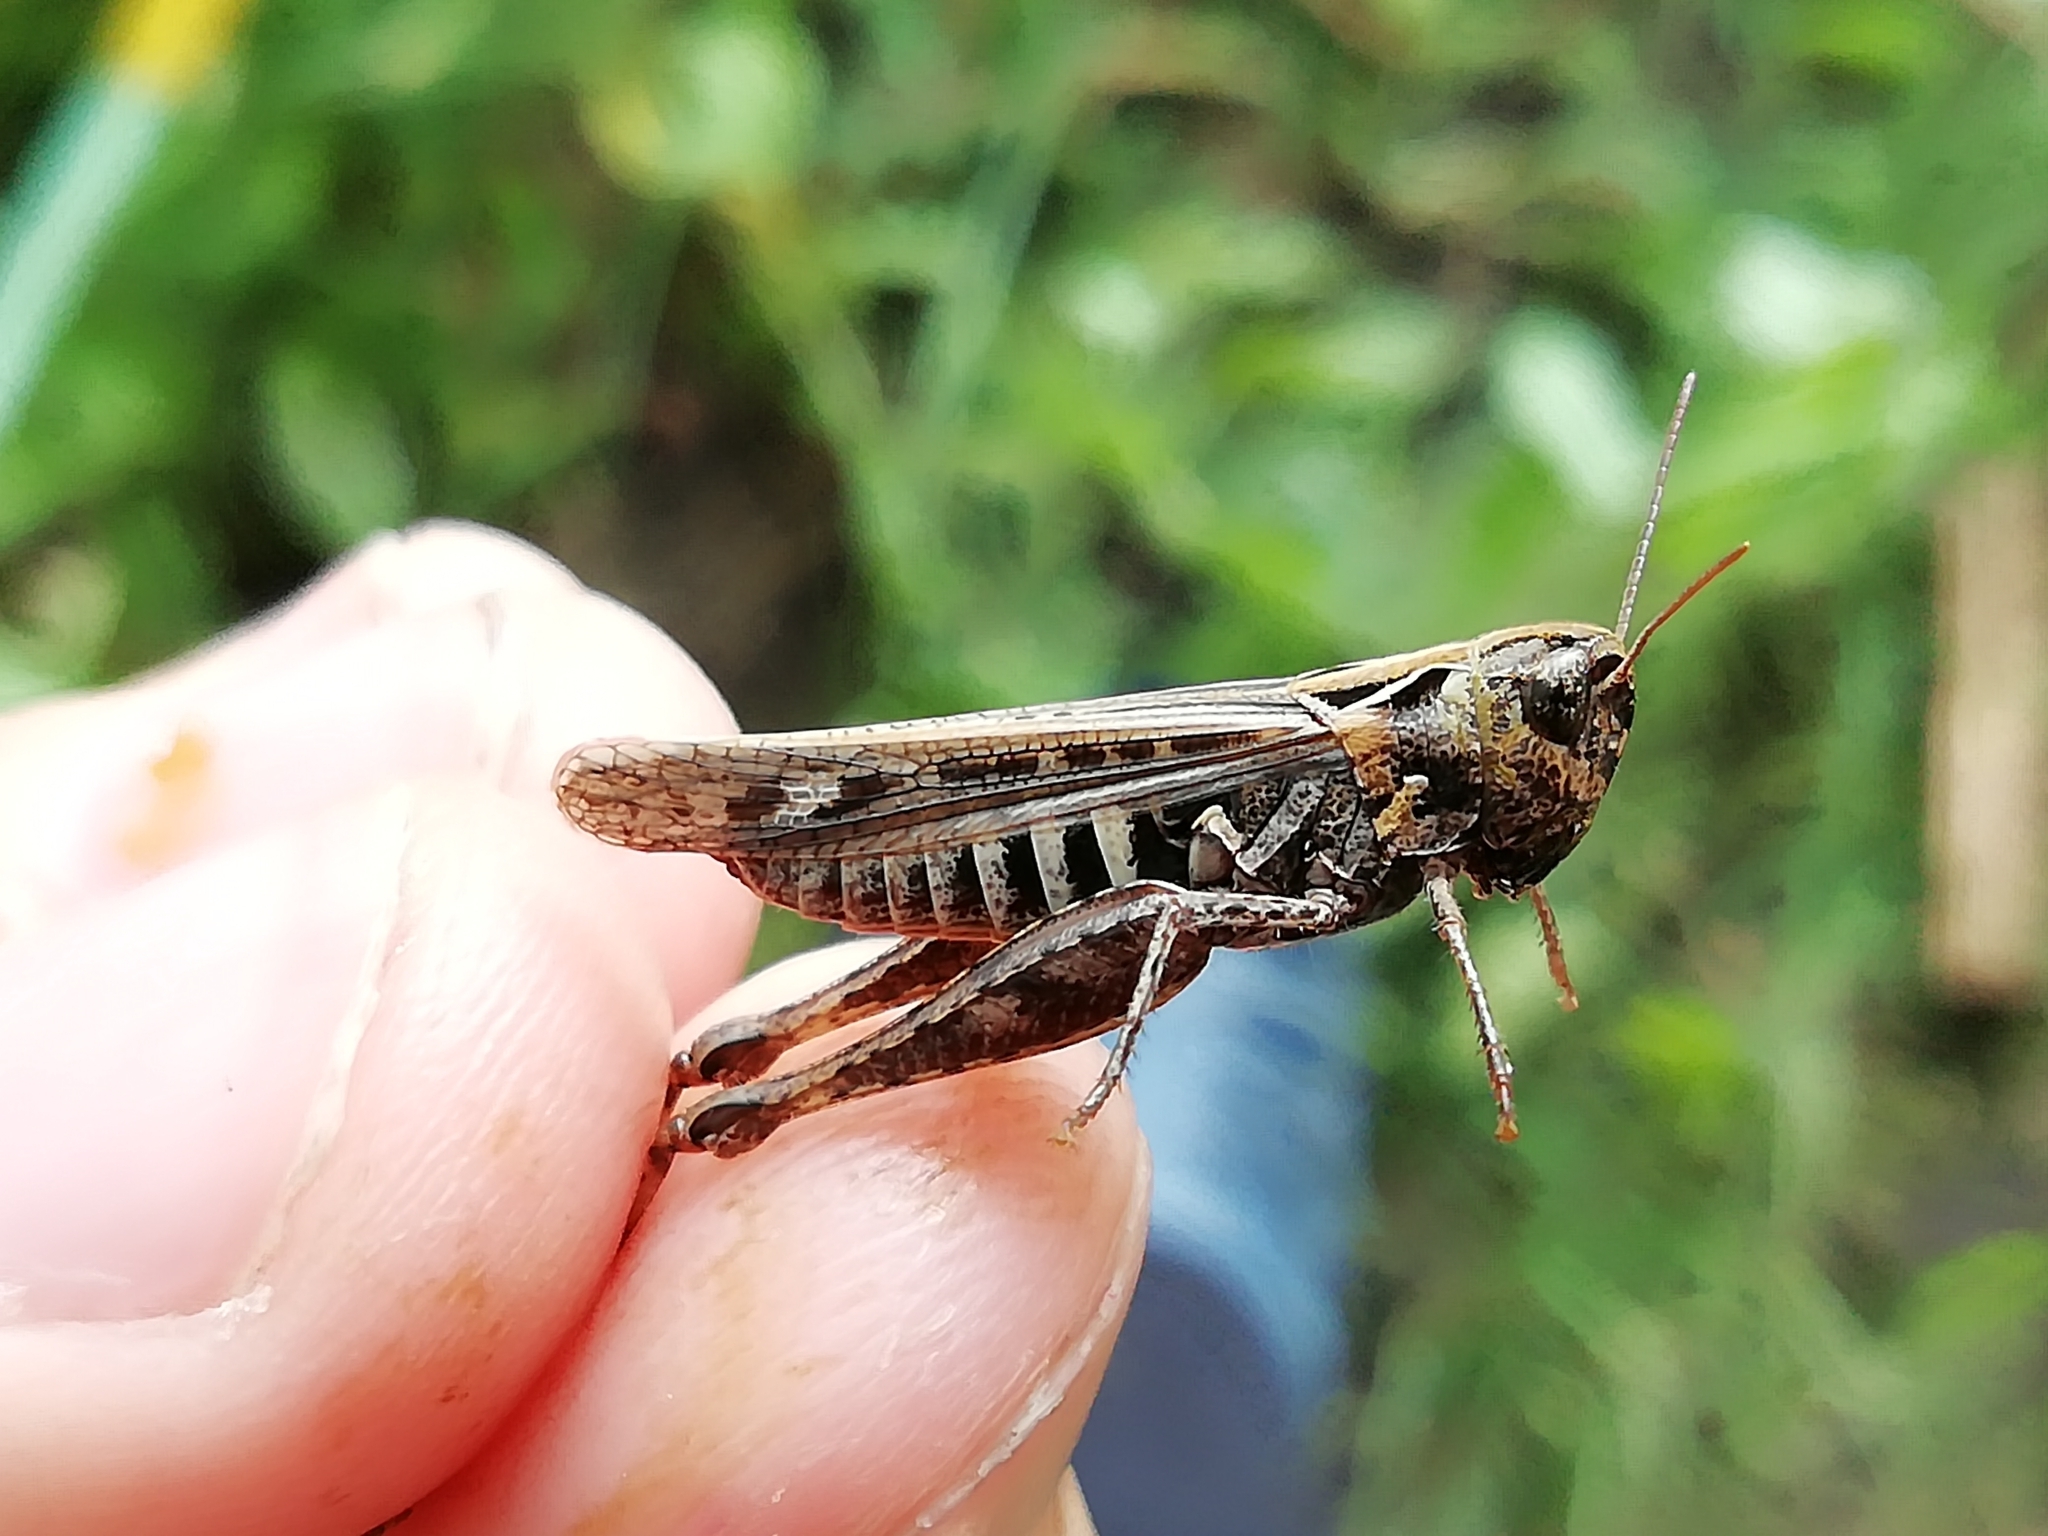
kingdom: Animalia
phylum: Arthropoda
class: Insecta
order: Orthoptera
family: Acrididae
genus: Omocestus
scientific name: Omocestus haemorrhoidalis
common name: Orange-tipped grasshopper
